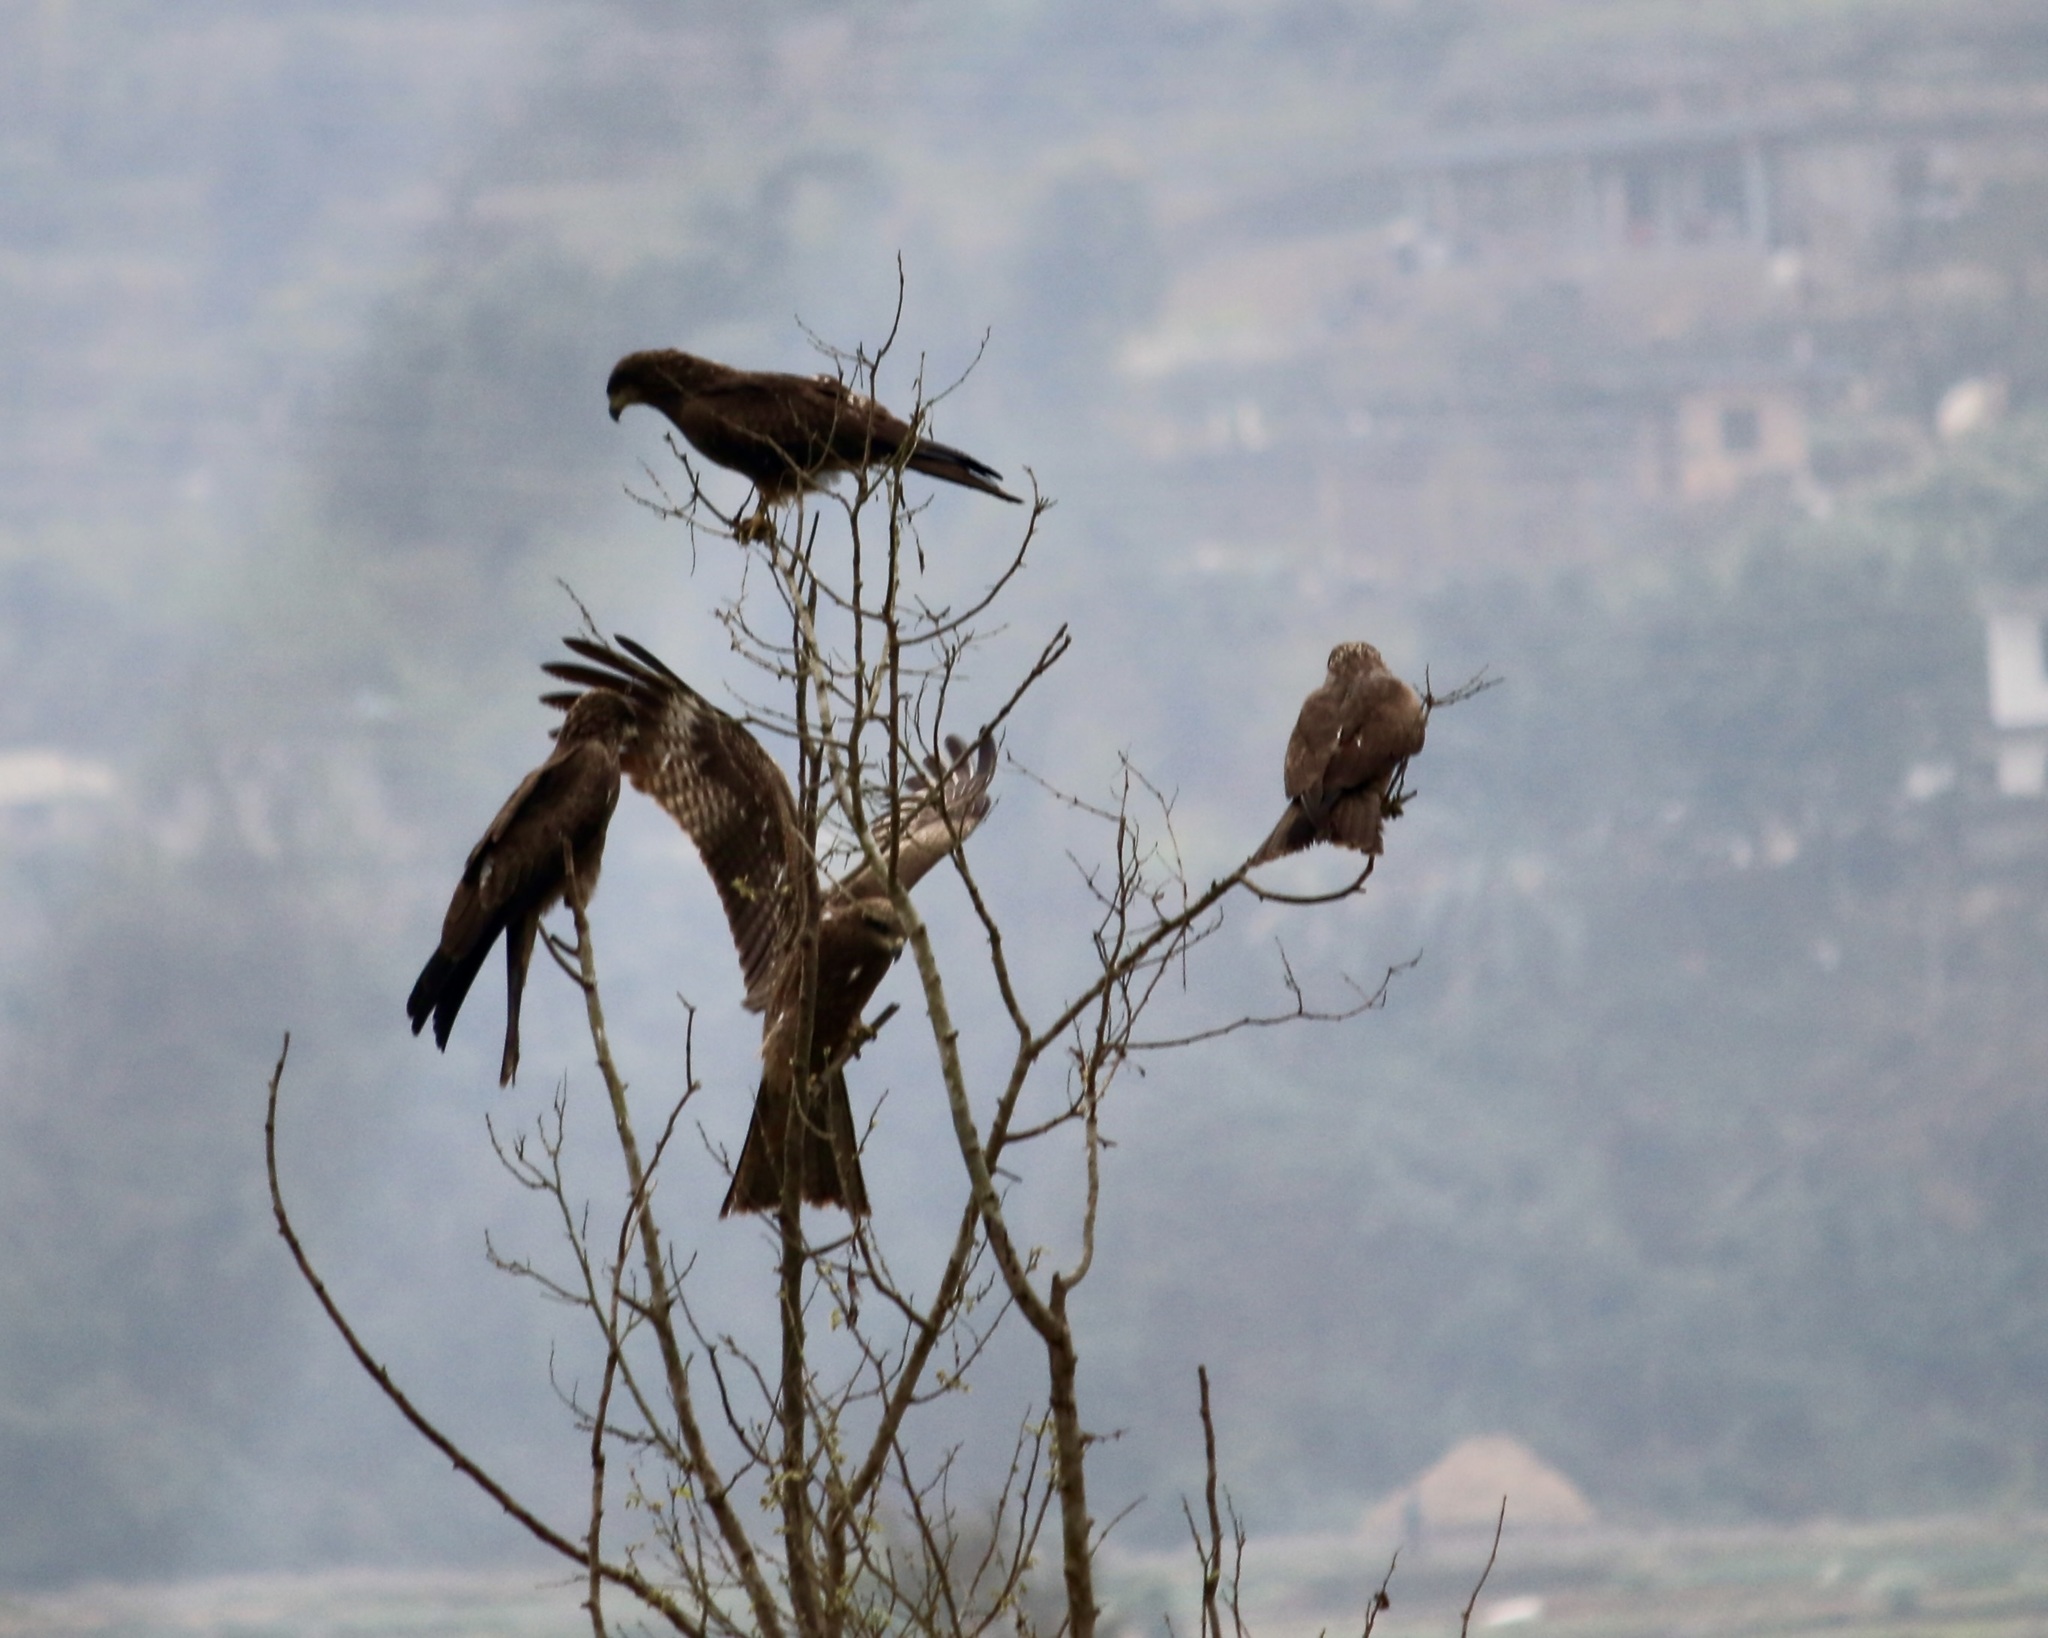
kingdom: Animalia
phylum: Chordata
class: Aves
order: Accipitriformes
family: Accipitridae
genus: Milvus
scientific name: Milvus migrans
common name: Black kite
